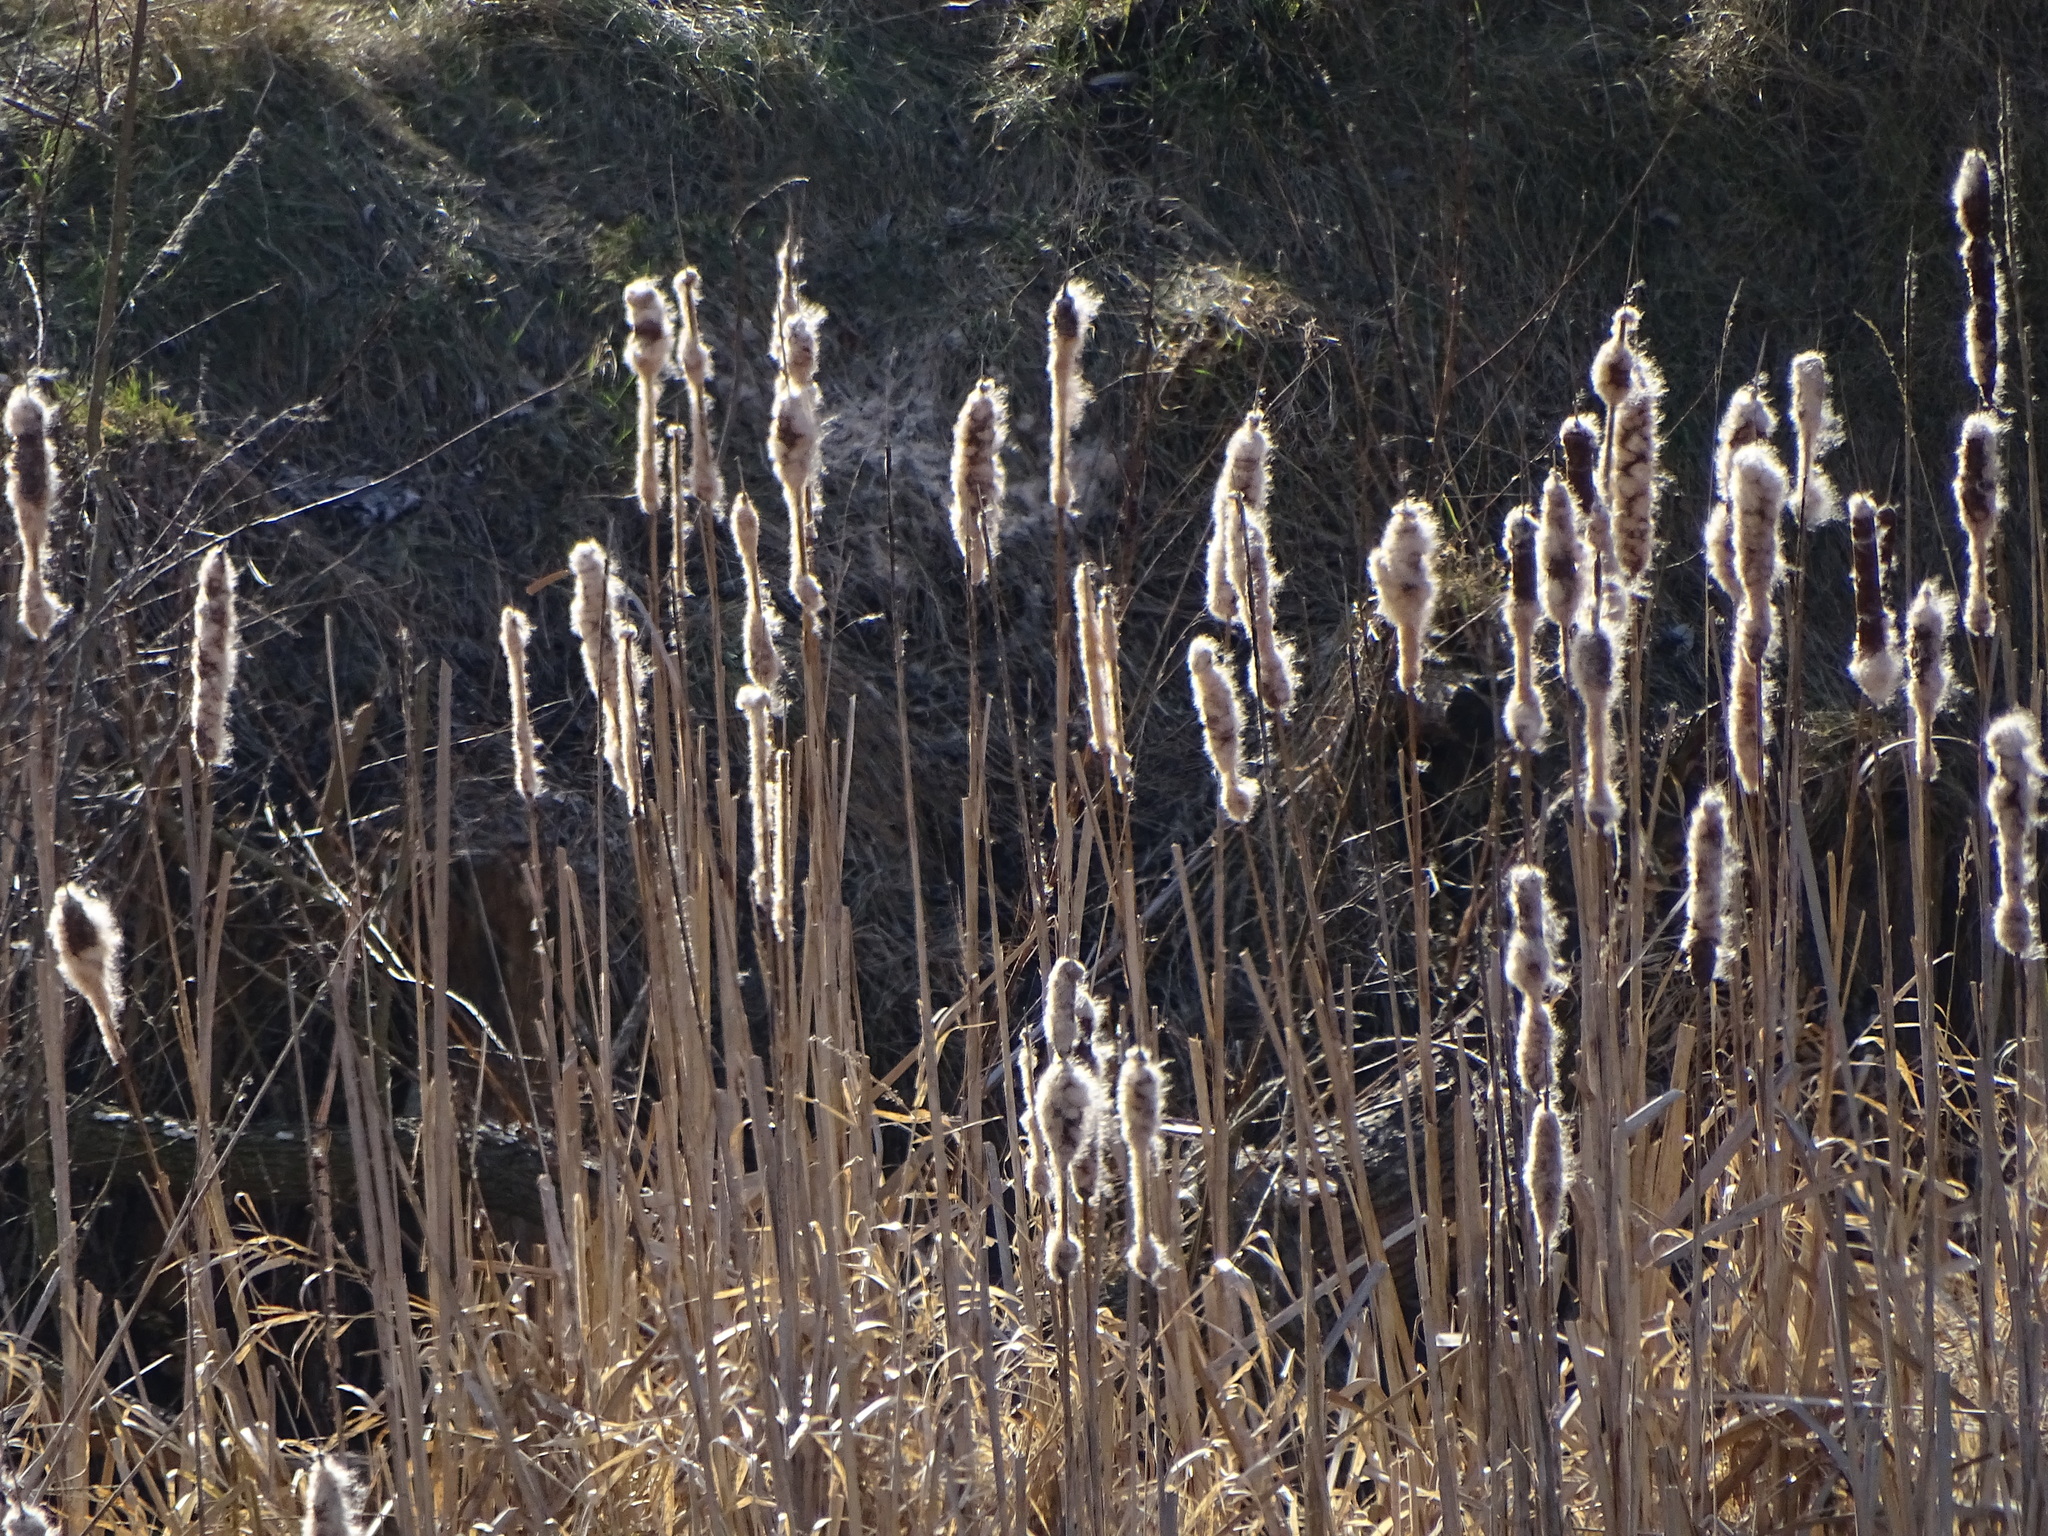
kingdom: Plantae
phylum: Tracheophyta
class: Liliopsida
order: Poales
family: Typhaceae
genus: Typha
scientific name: Typha latifolia
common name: Broadleaf cattail
